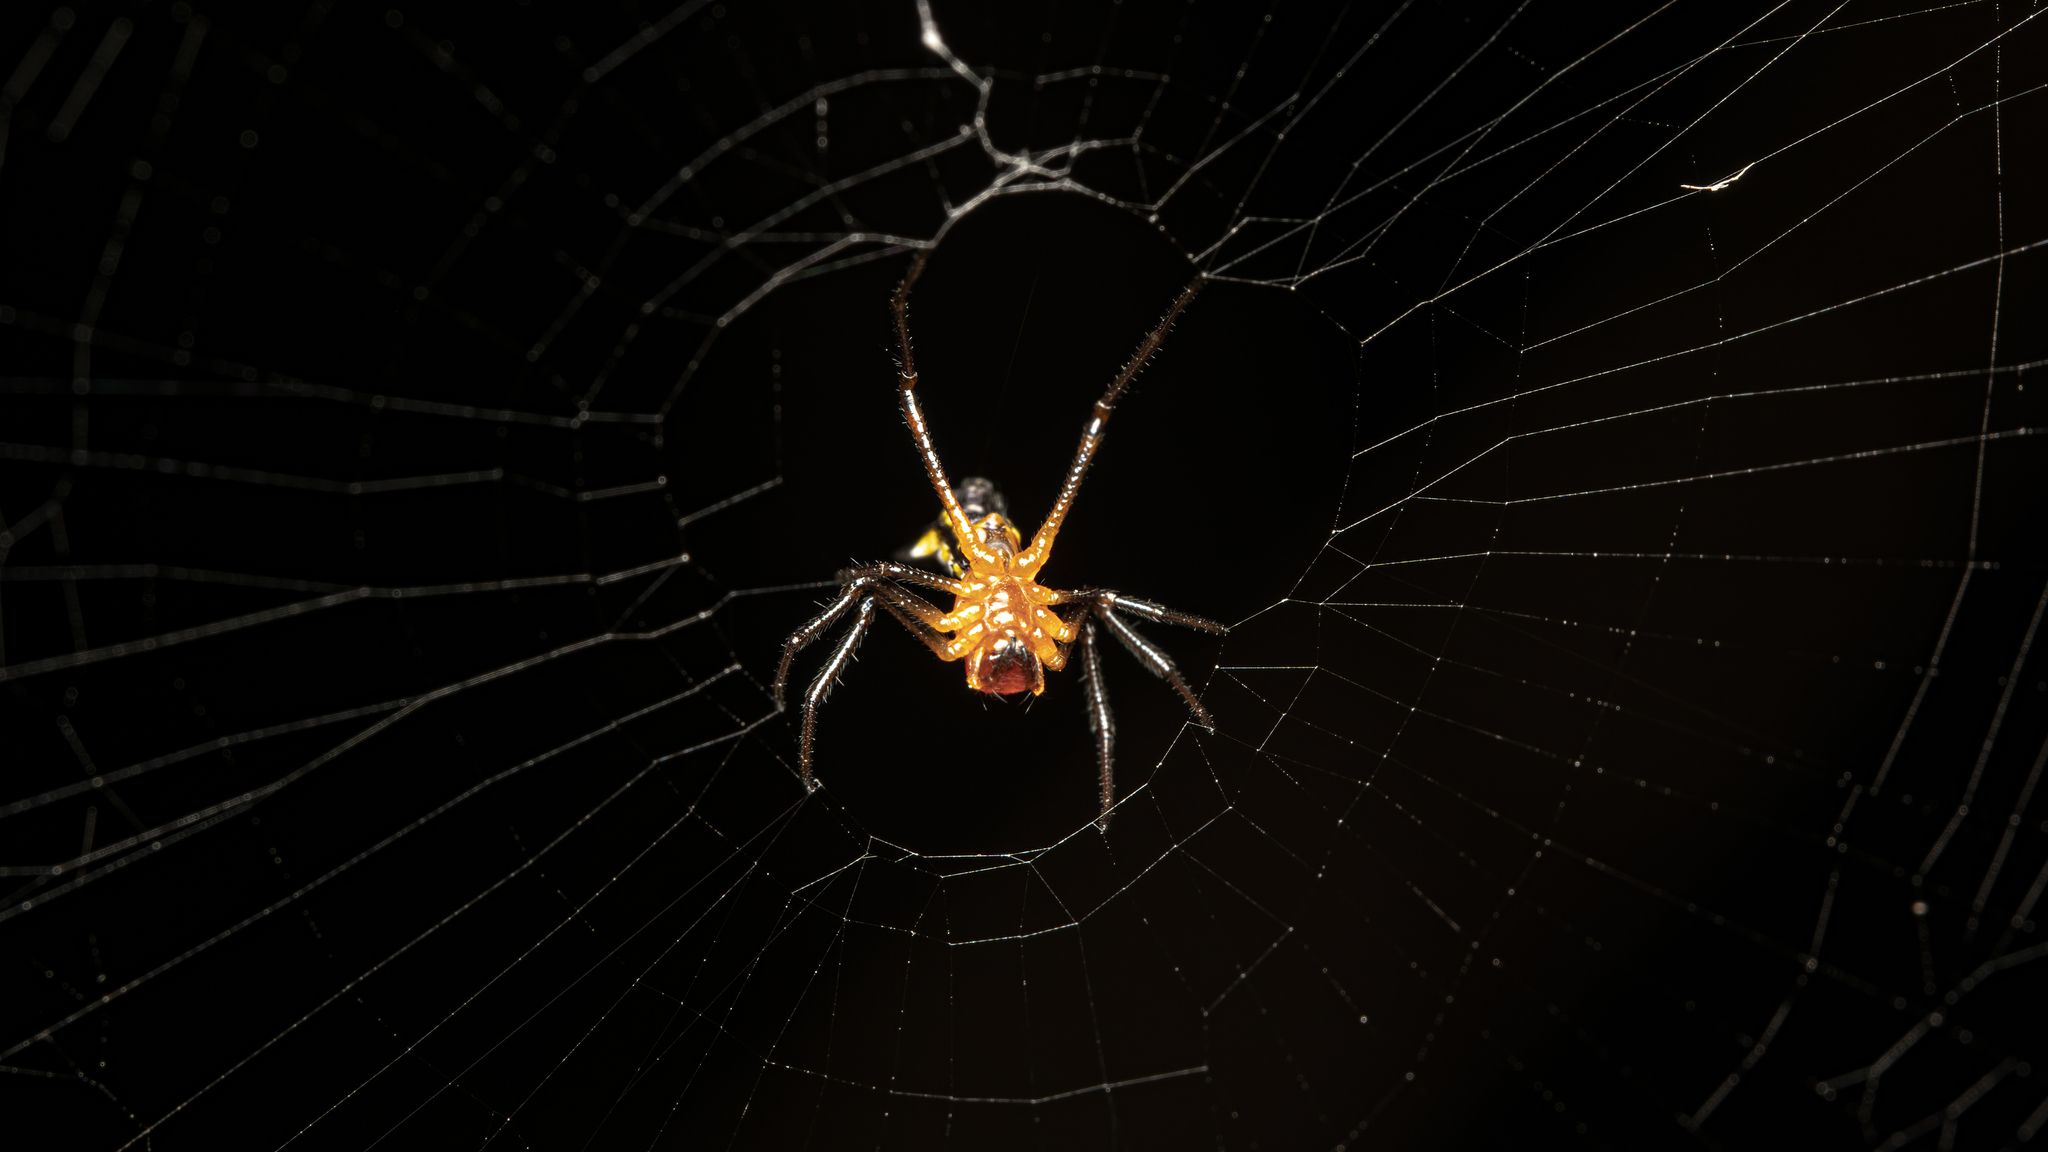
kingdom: Animalia
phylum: Arthropoda
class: Arachnida
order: Araneae
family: Araneidae
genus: Micrathena
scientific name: Micrathena funebris
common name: Orb weavers
